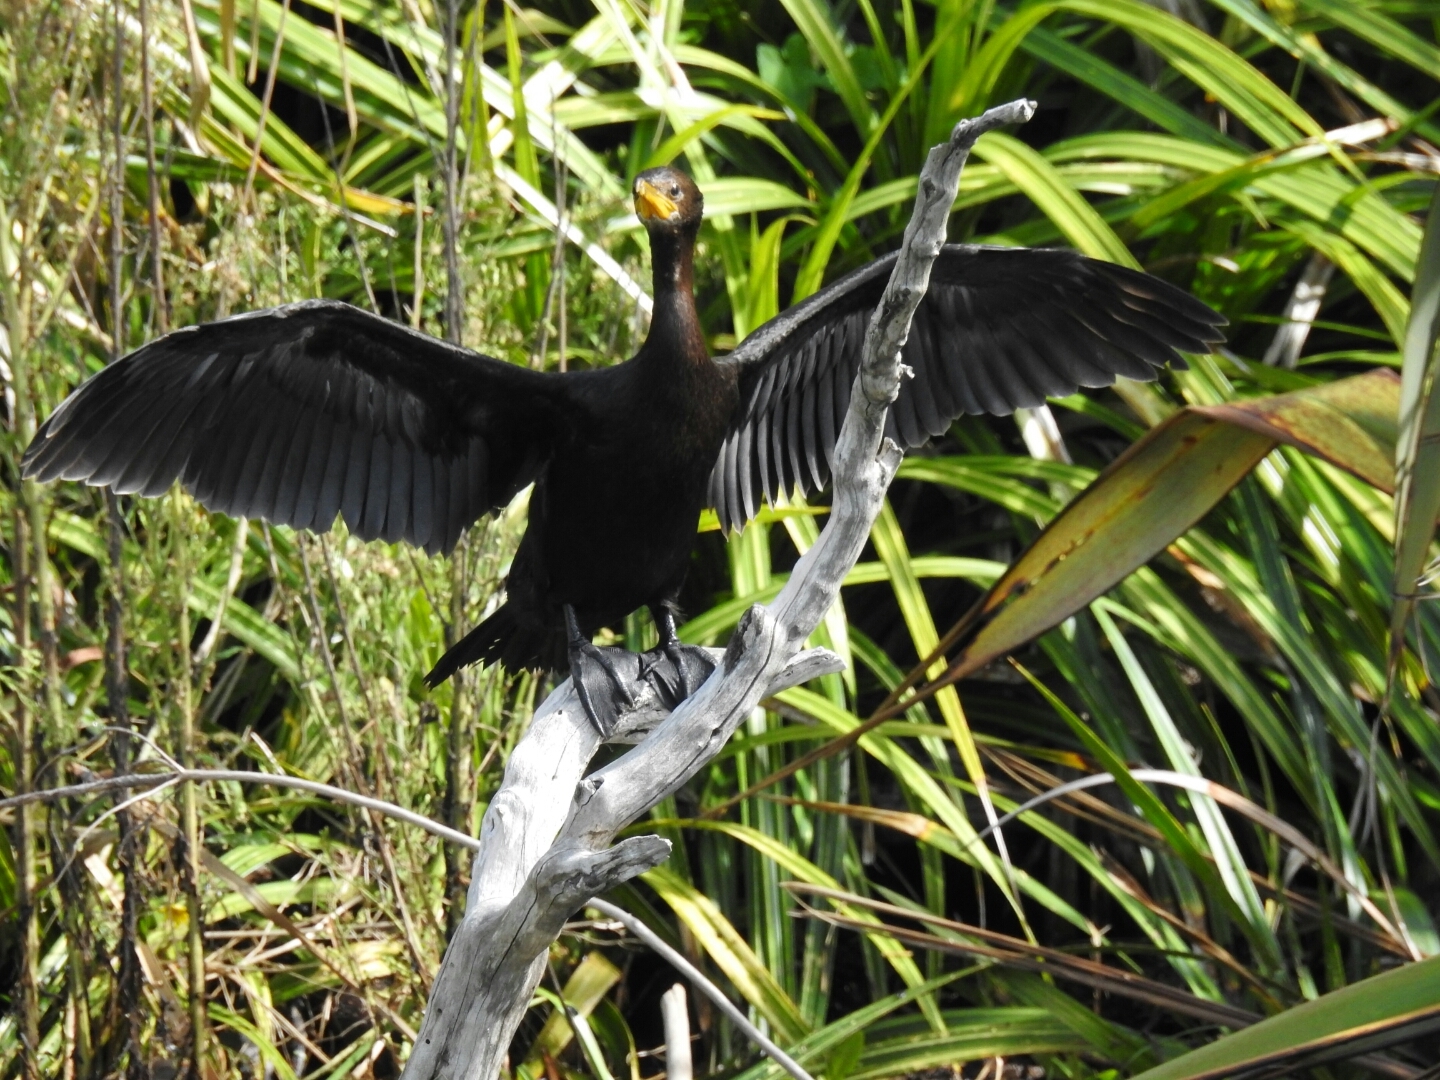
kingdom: Animalia
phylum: Chordata
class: Aves
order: Suliformes
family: Phalacrocoracidae
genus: Microcarbo
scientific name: Microcarbo melanoleucos
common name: Little pied cormorant
